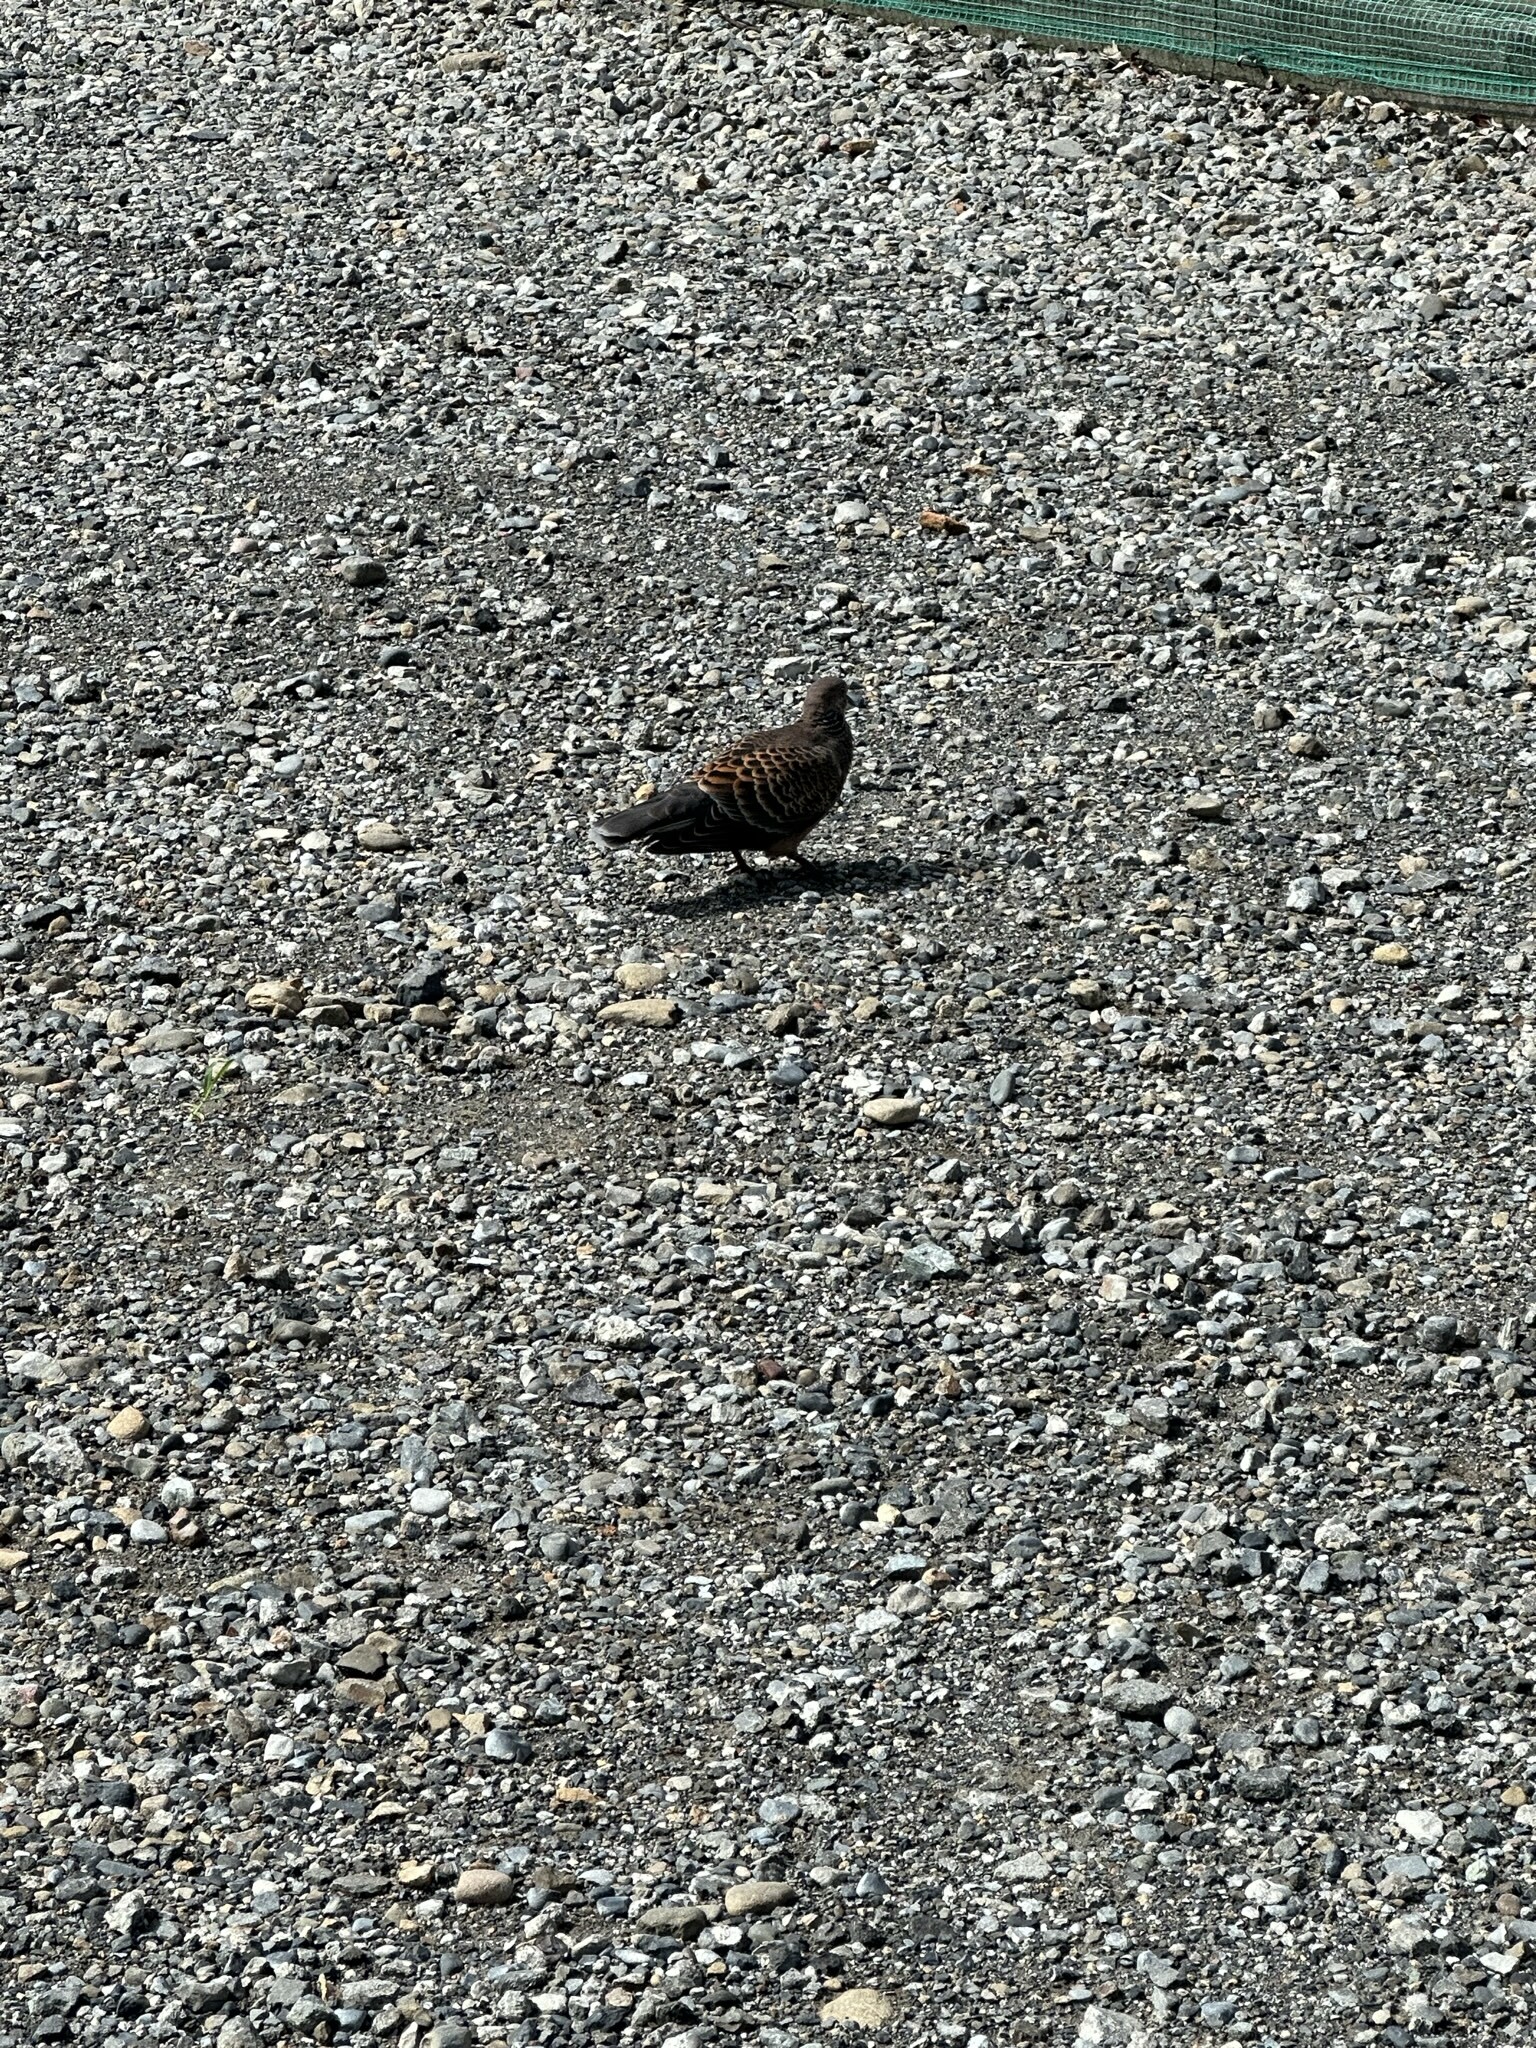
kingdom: Animalia
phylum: Chordata
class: Aves
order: Columbiformes
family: Columbidae
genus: Streptopelia
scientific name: Streptopelia orientalis
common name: Oriental turtle dove
